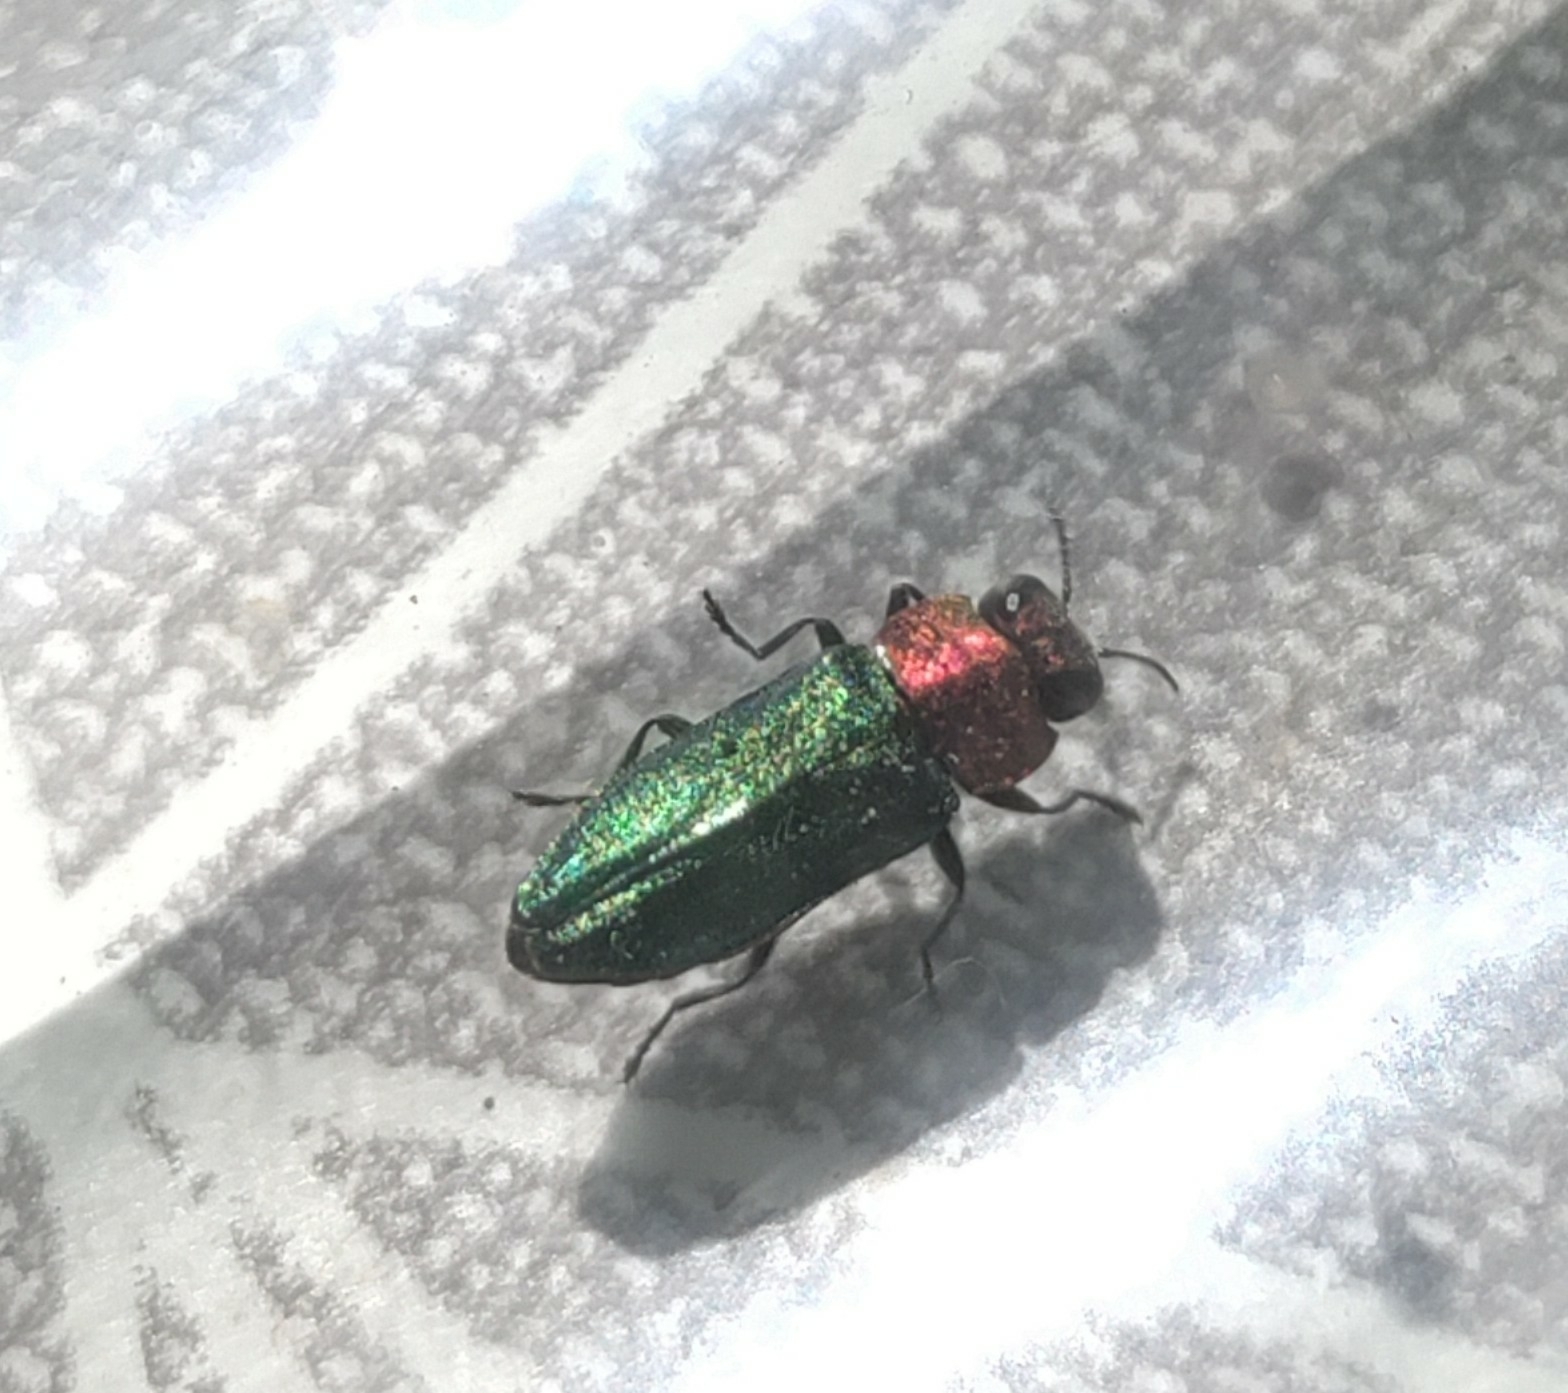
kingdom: Animalia
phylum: Arthropoda
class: Insecta
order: Coleoptera
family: Buprestidae
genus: Anthaxia
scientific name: Anthaxia nitidula
